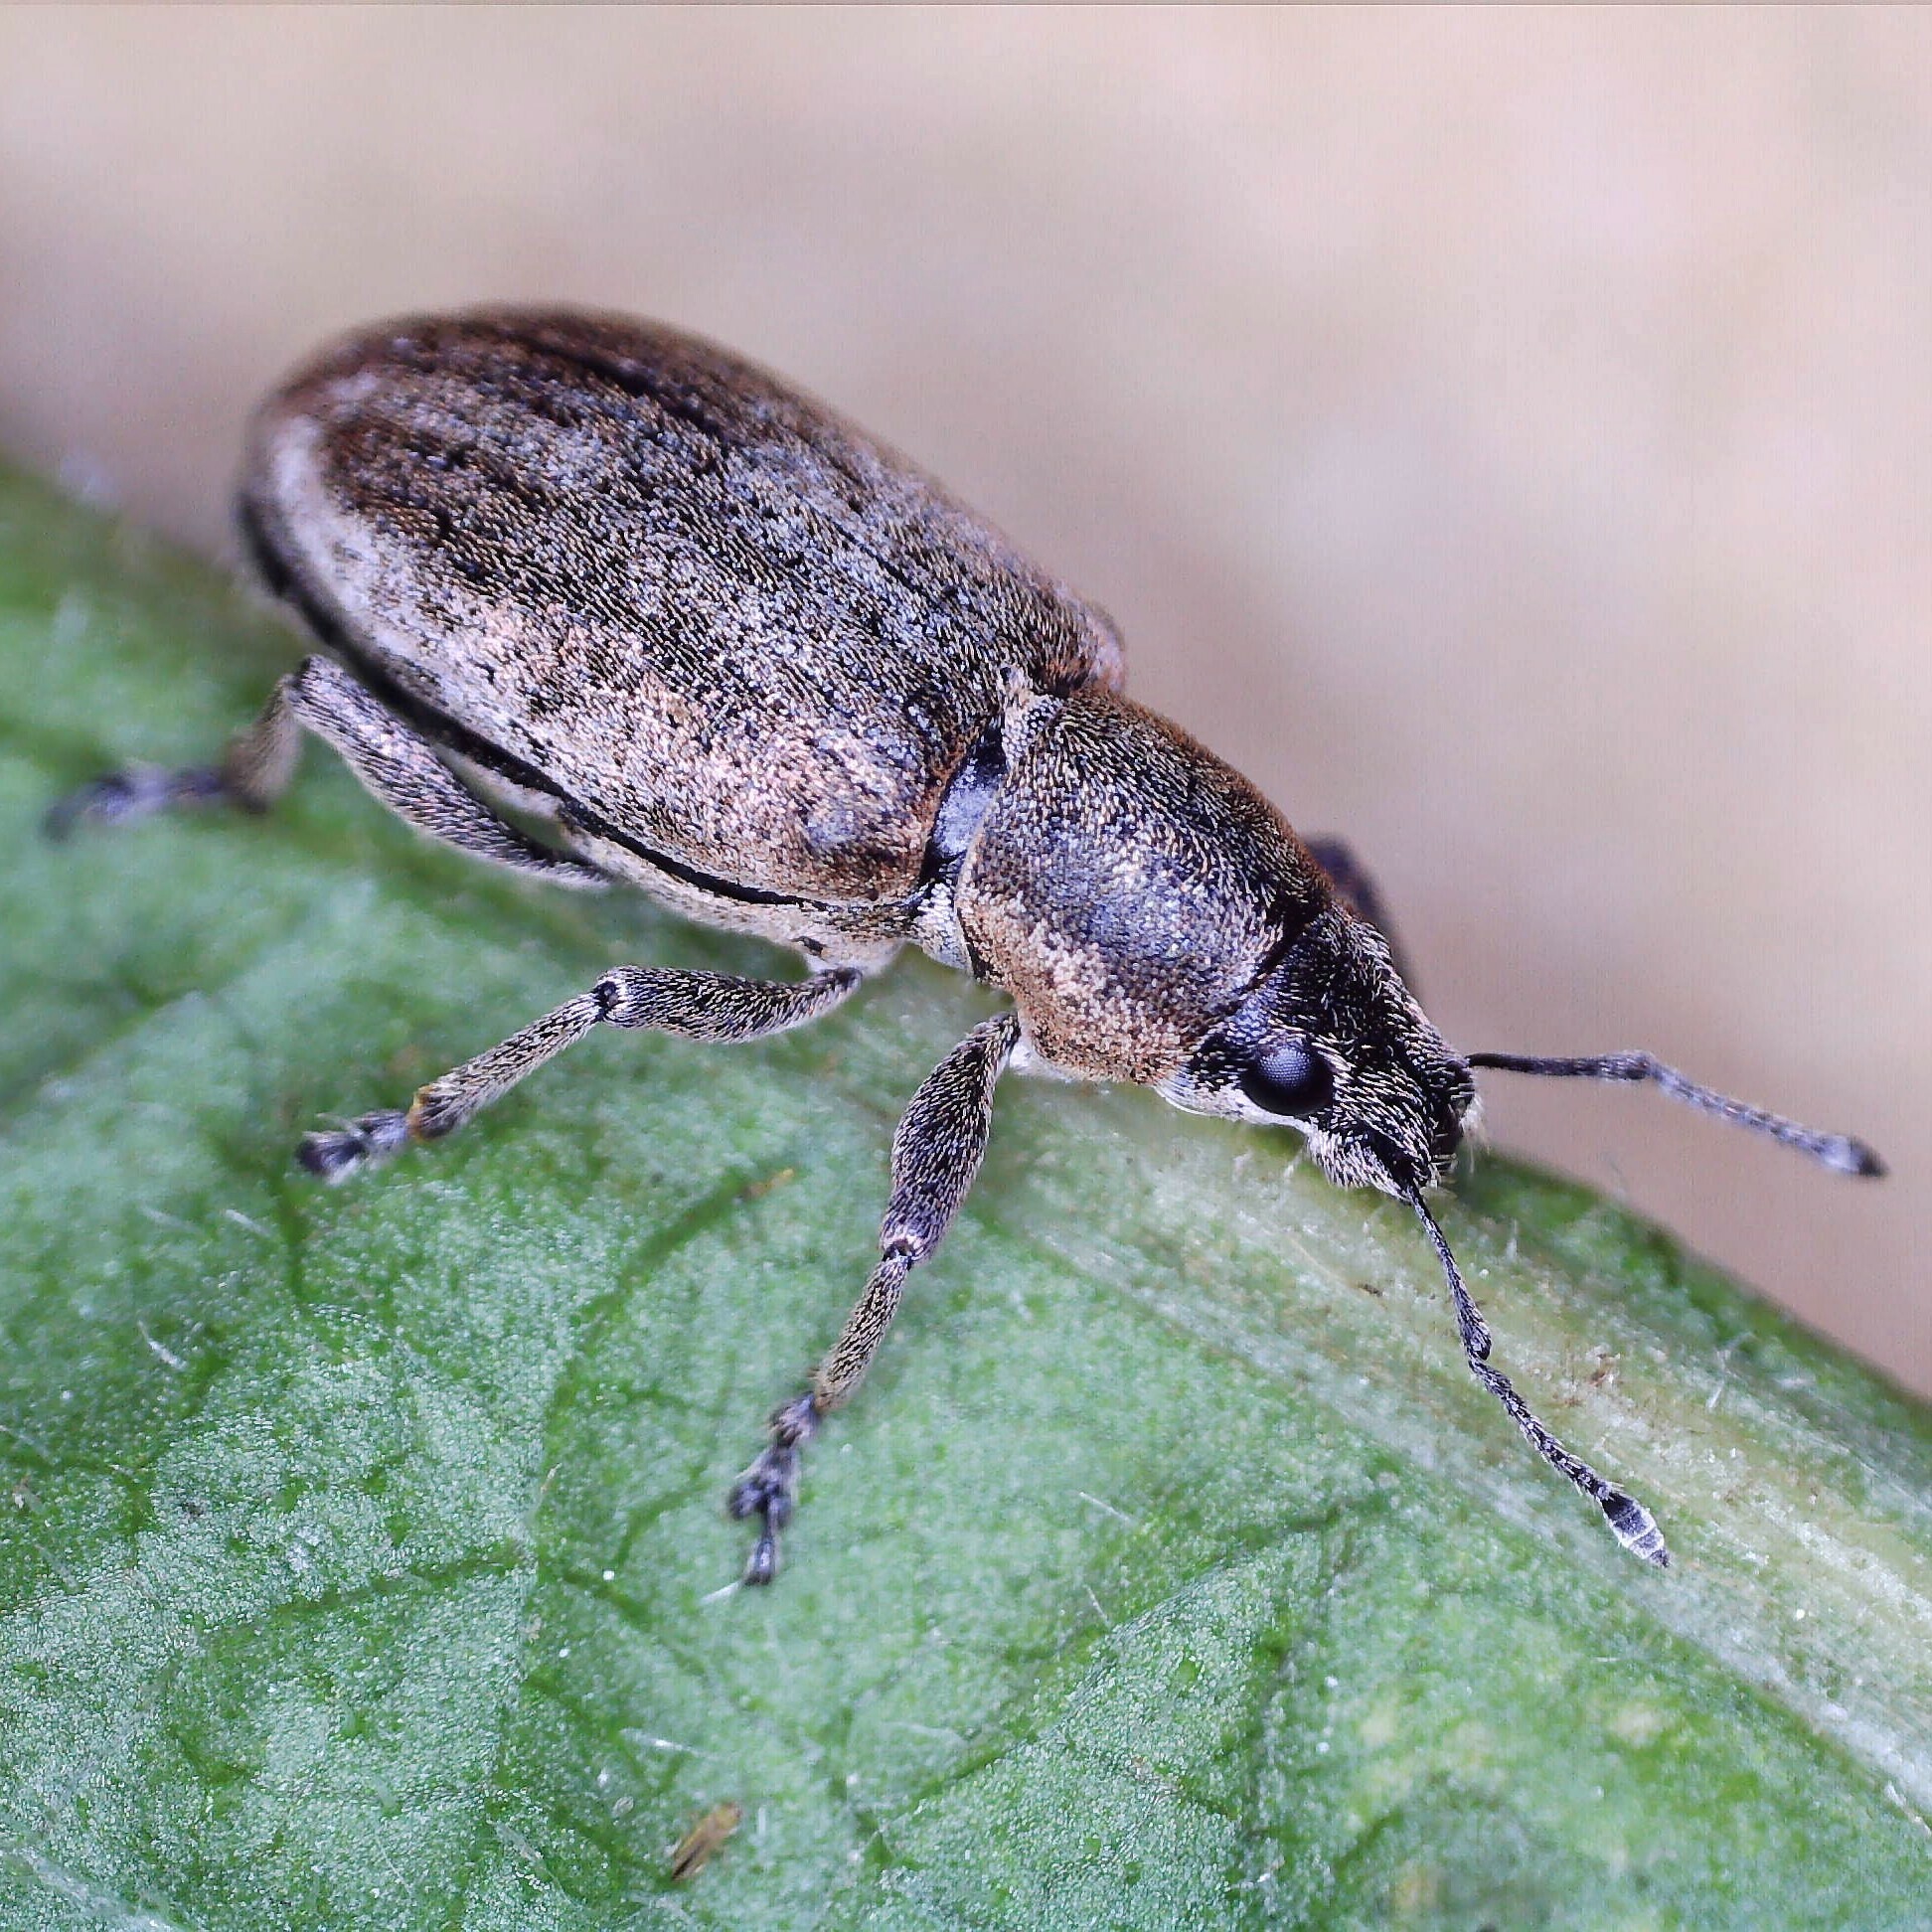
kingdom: Animalia
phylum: Arthropoda
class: Insecta
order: Coleoptera
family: Curculionidae
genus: Tanymecus
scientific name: Tanymecus palliatus
